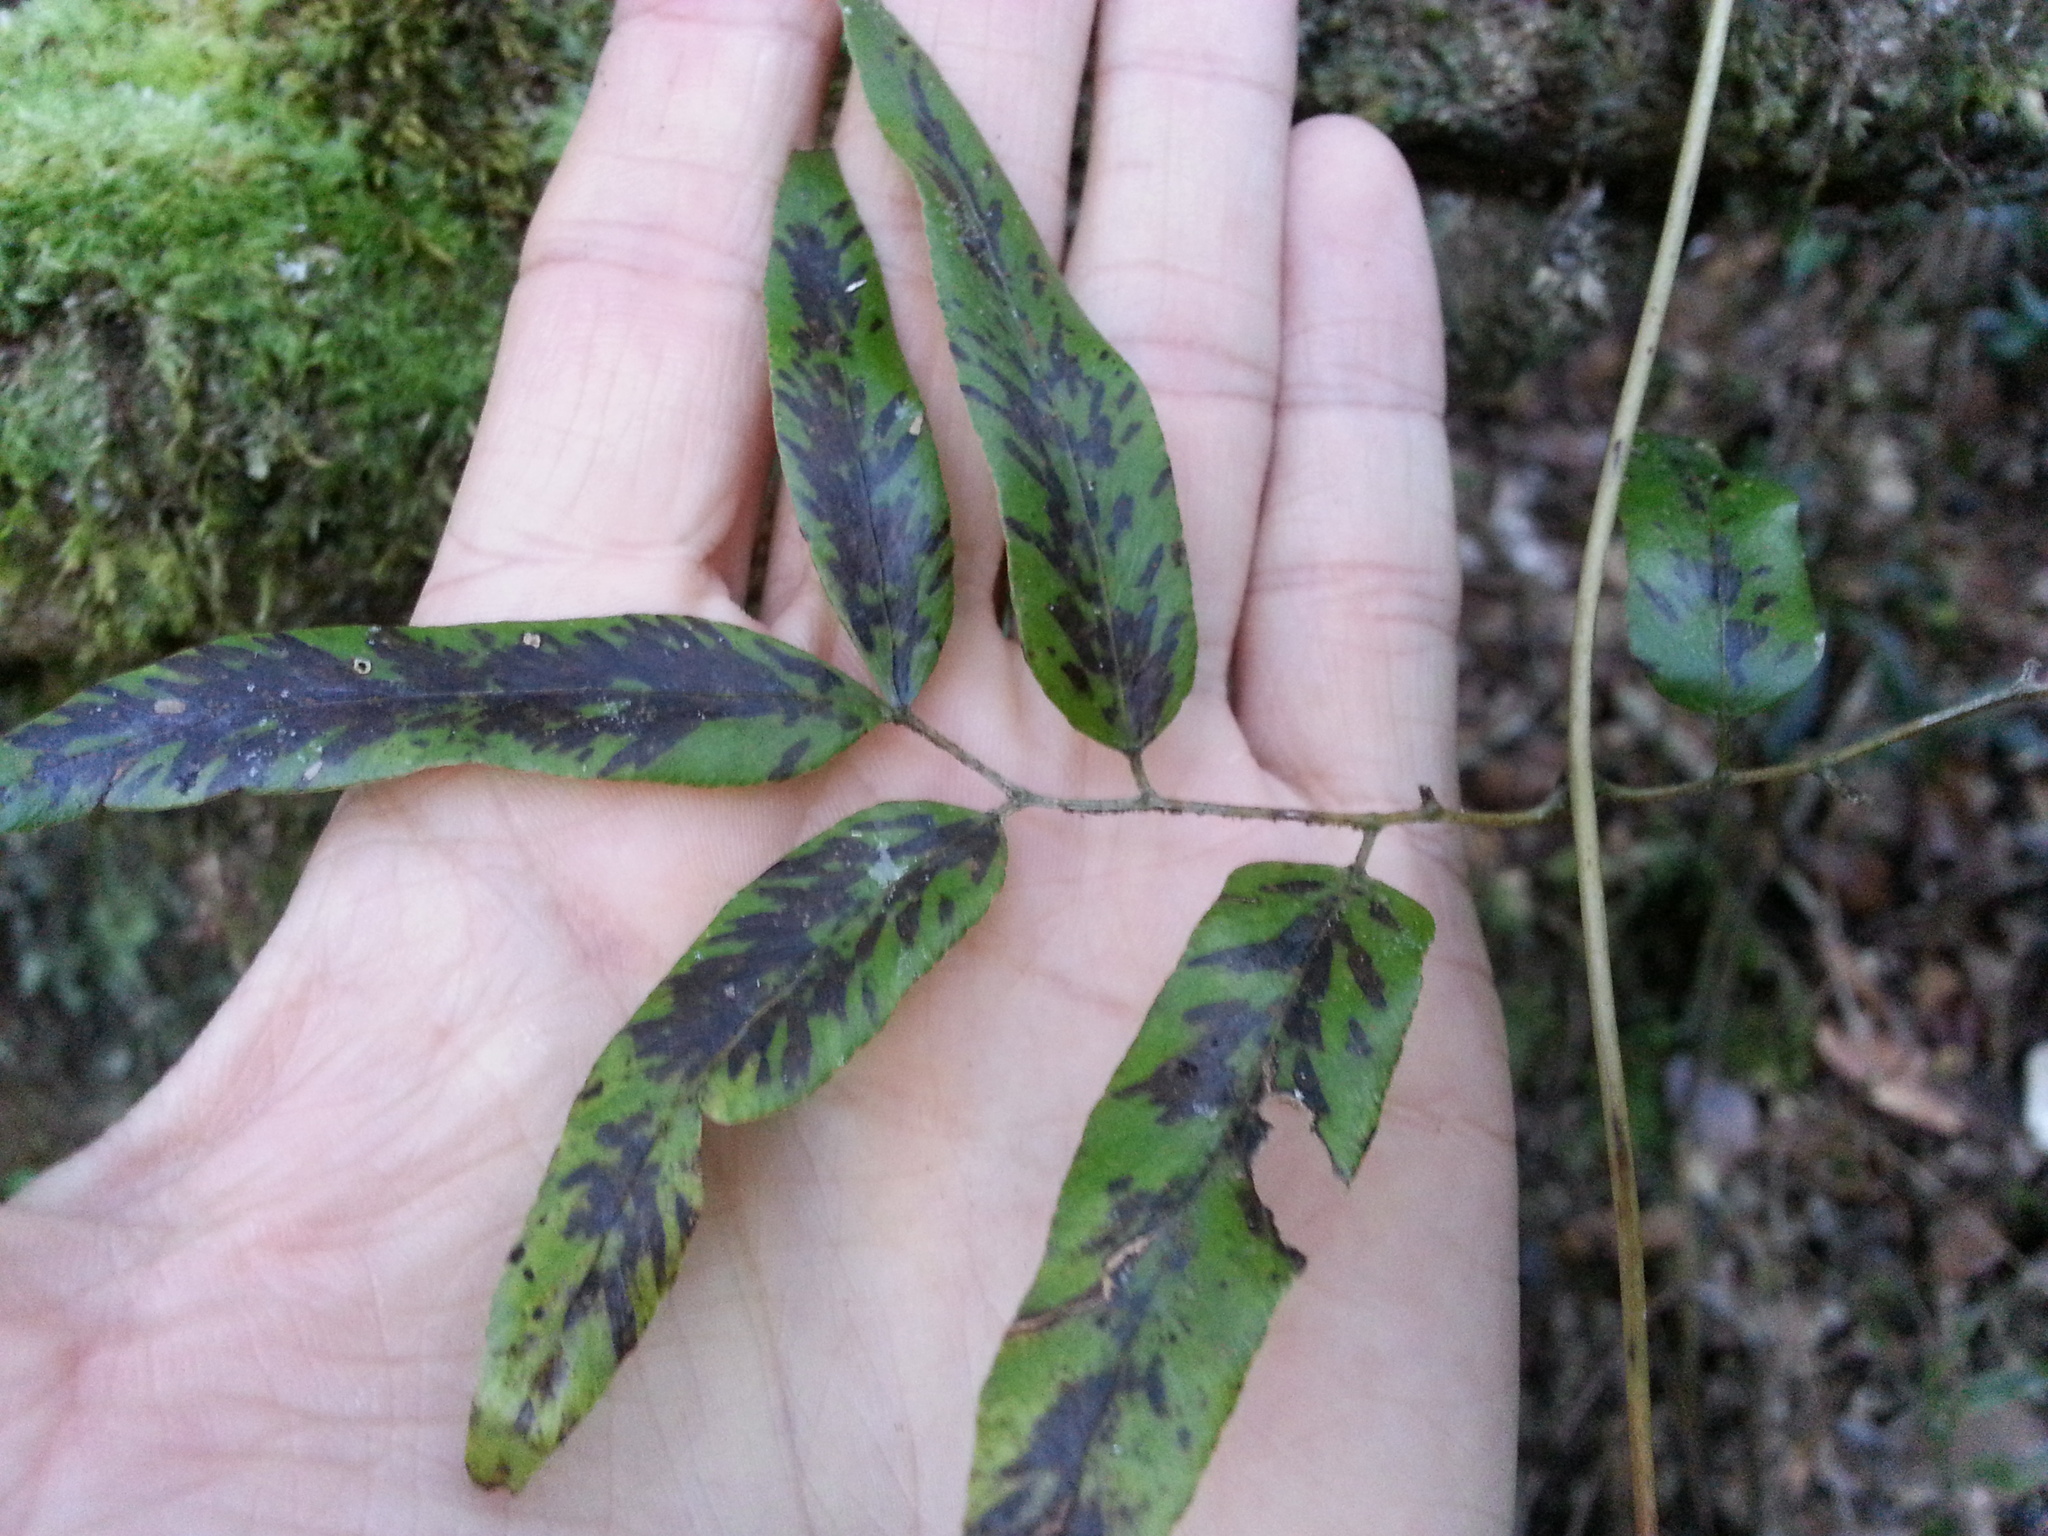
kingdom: Plantae
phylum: Tracheophyta
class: Polypodiopsida
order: Schizaeales
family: Lygodiaceae
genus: Lygodium
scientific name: Lygodium lanceolatum
